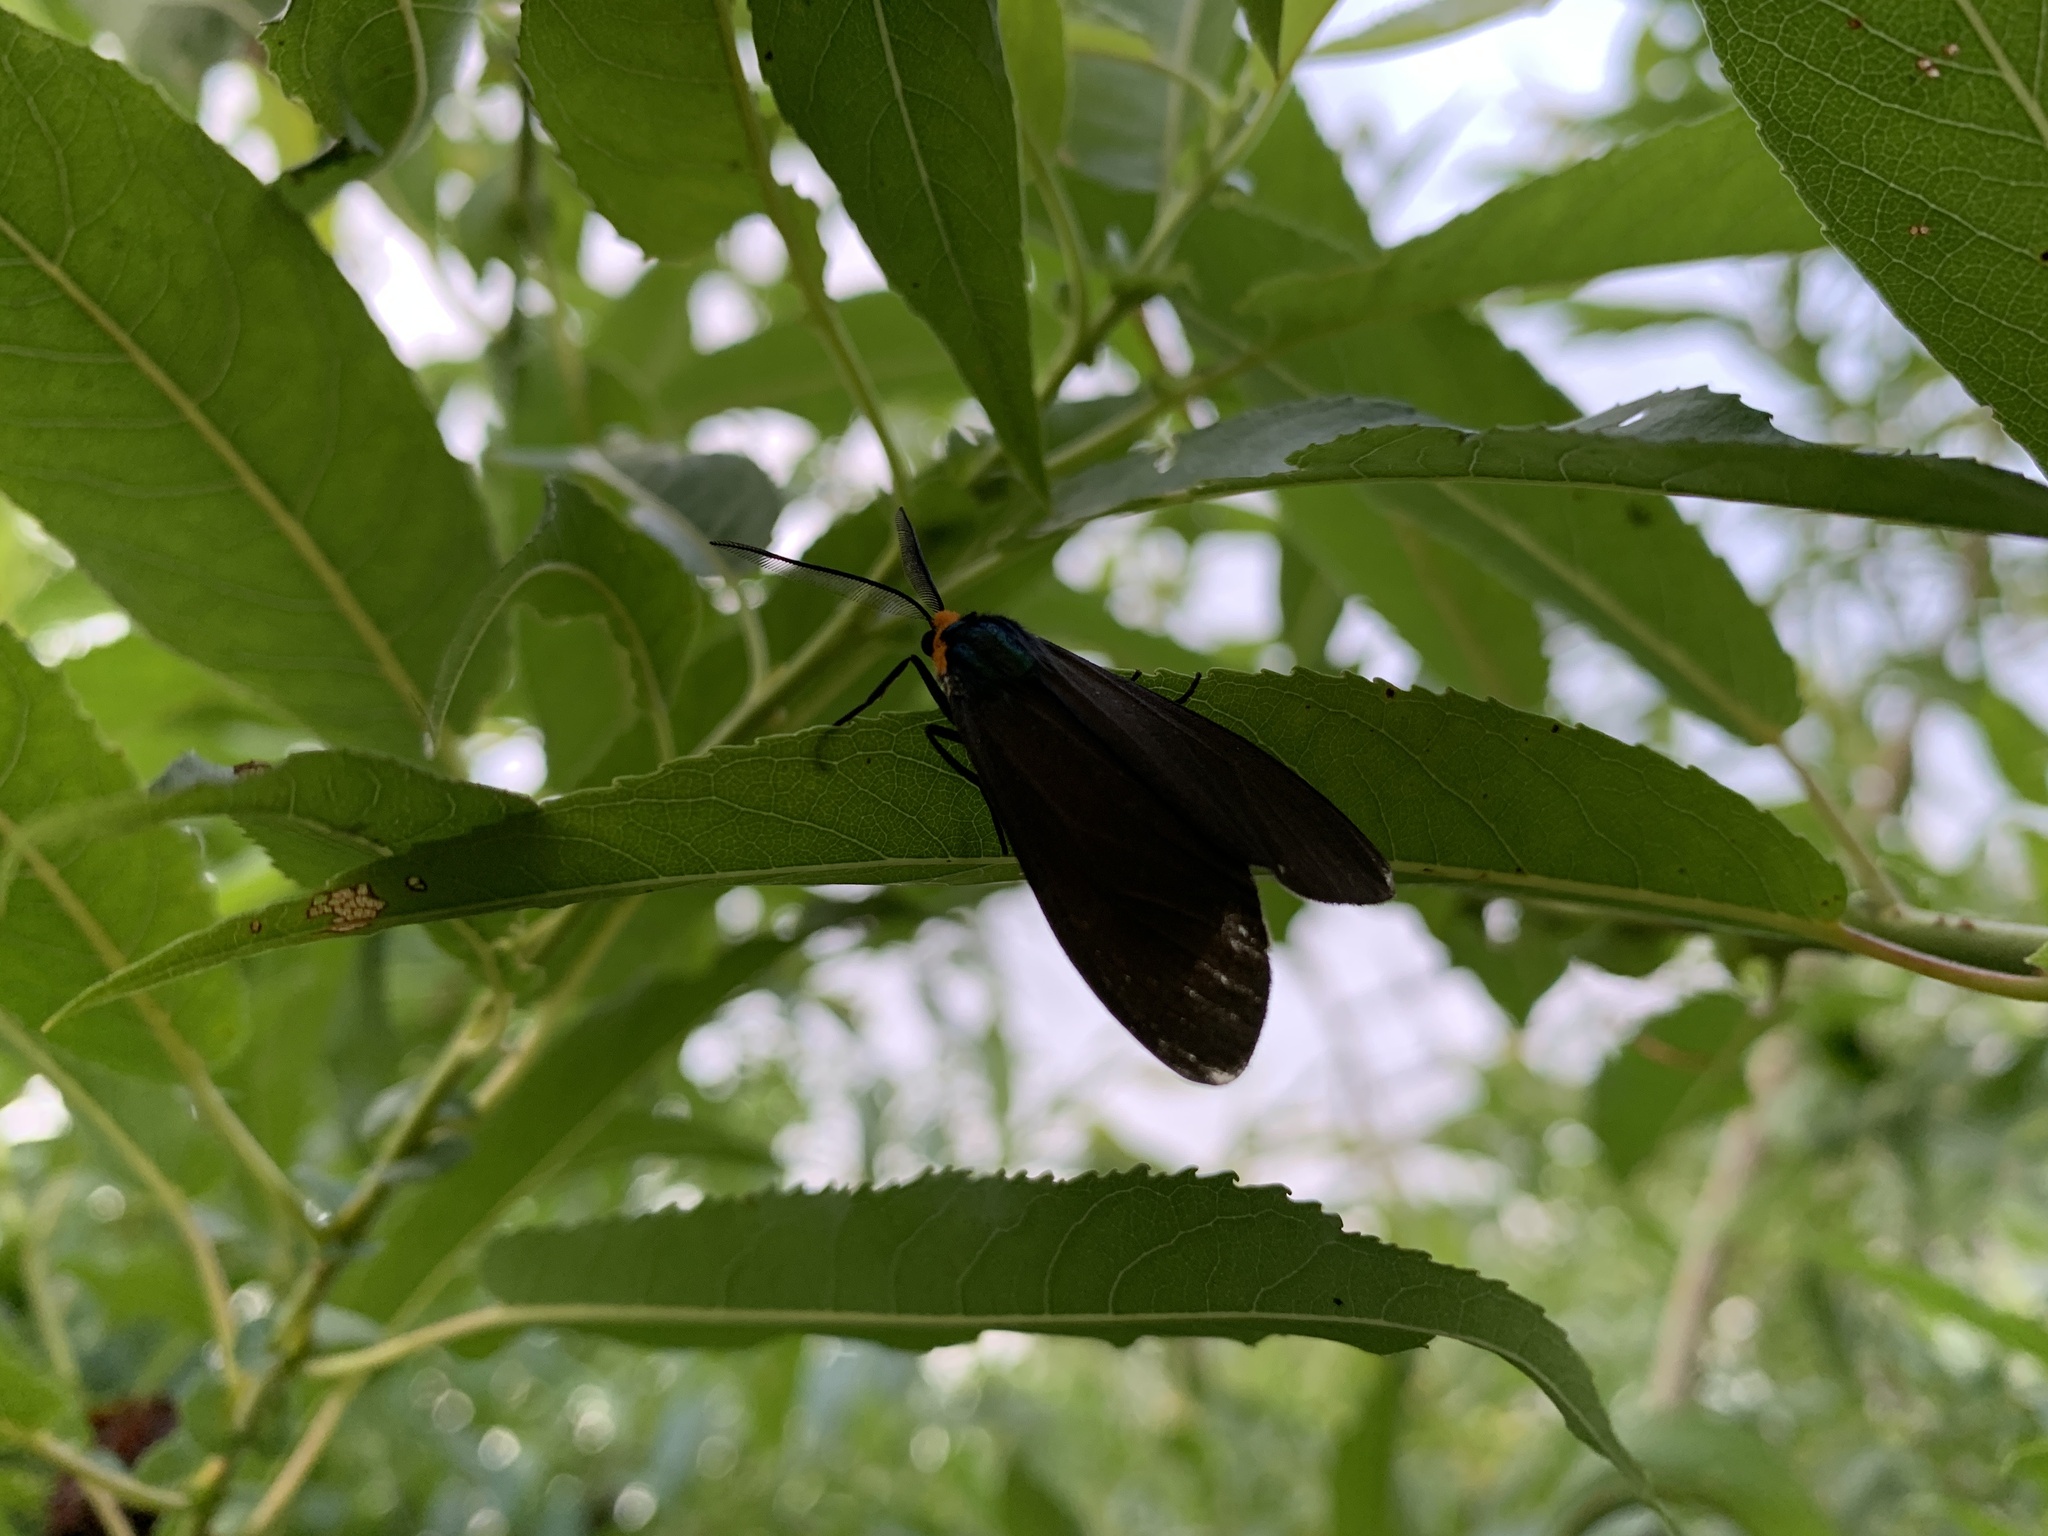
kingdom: Animalia
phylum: Arthropoda
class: Insecta
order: Lepidoptera
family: Erebidae
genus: Ctenucha
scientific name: Ctenucha virginica
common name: Virginia ctenucha moth
